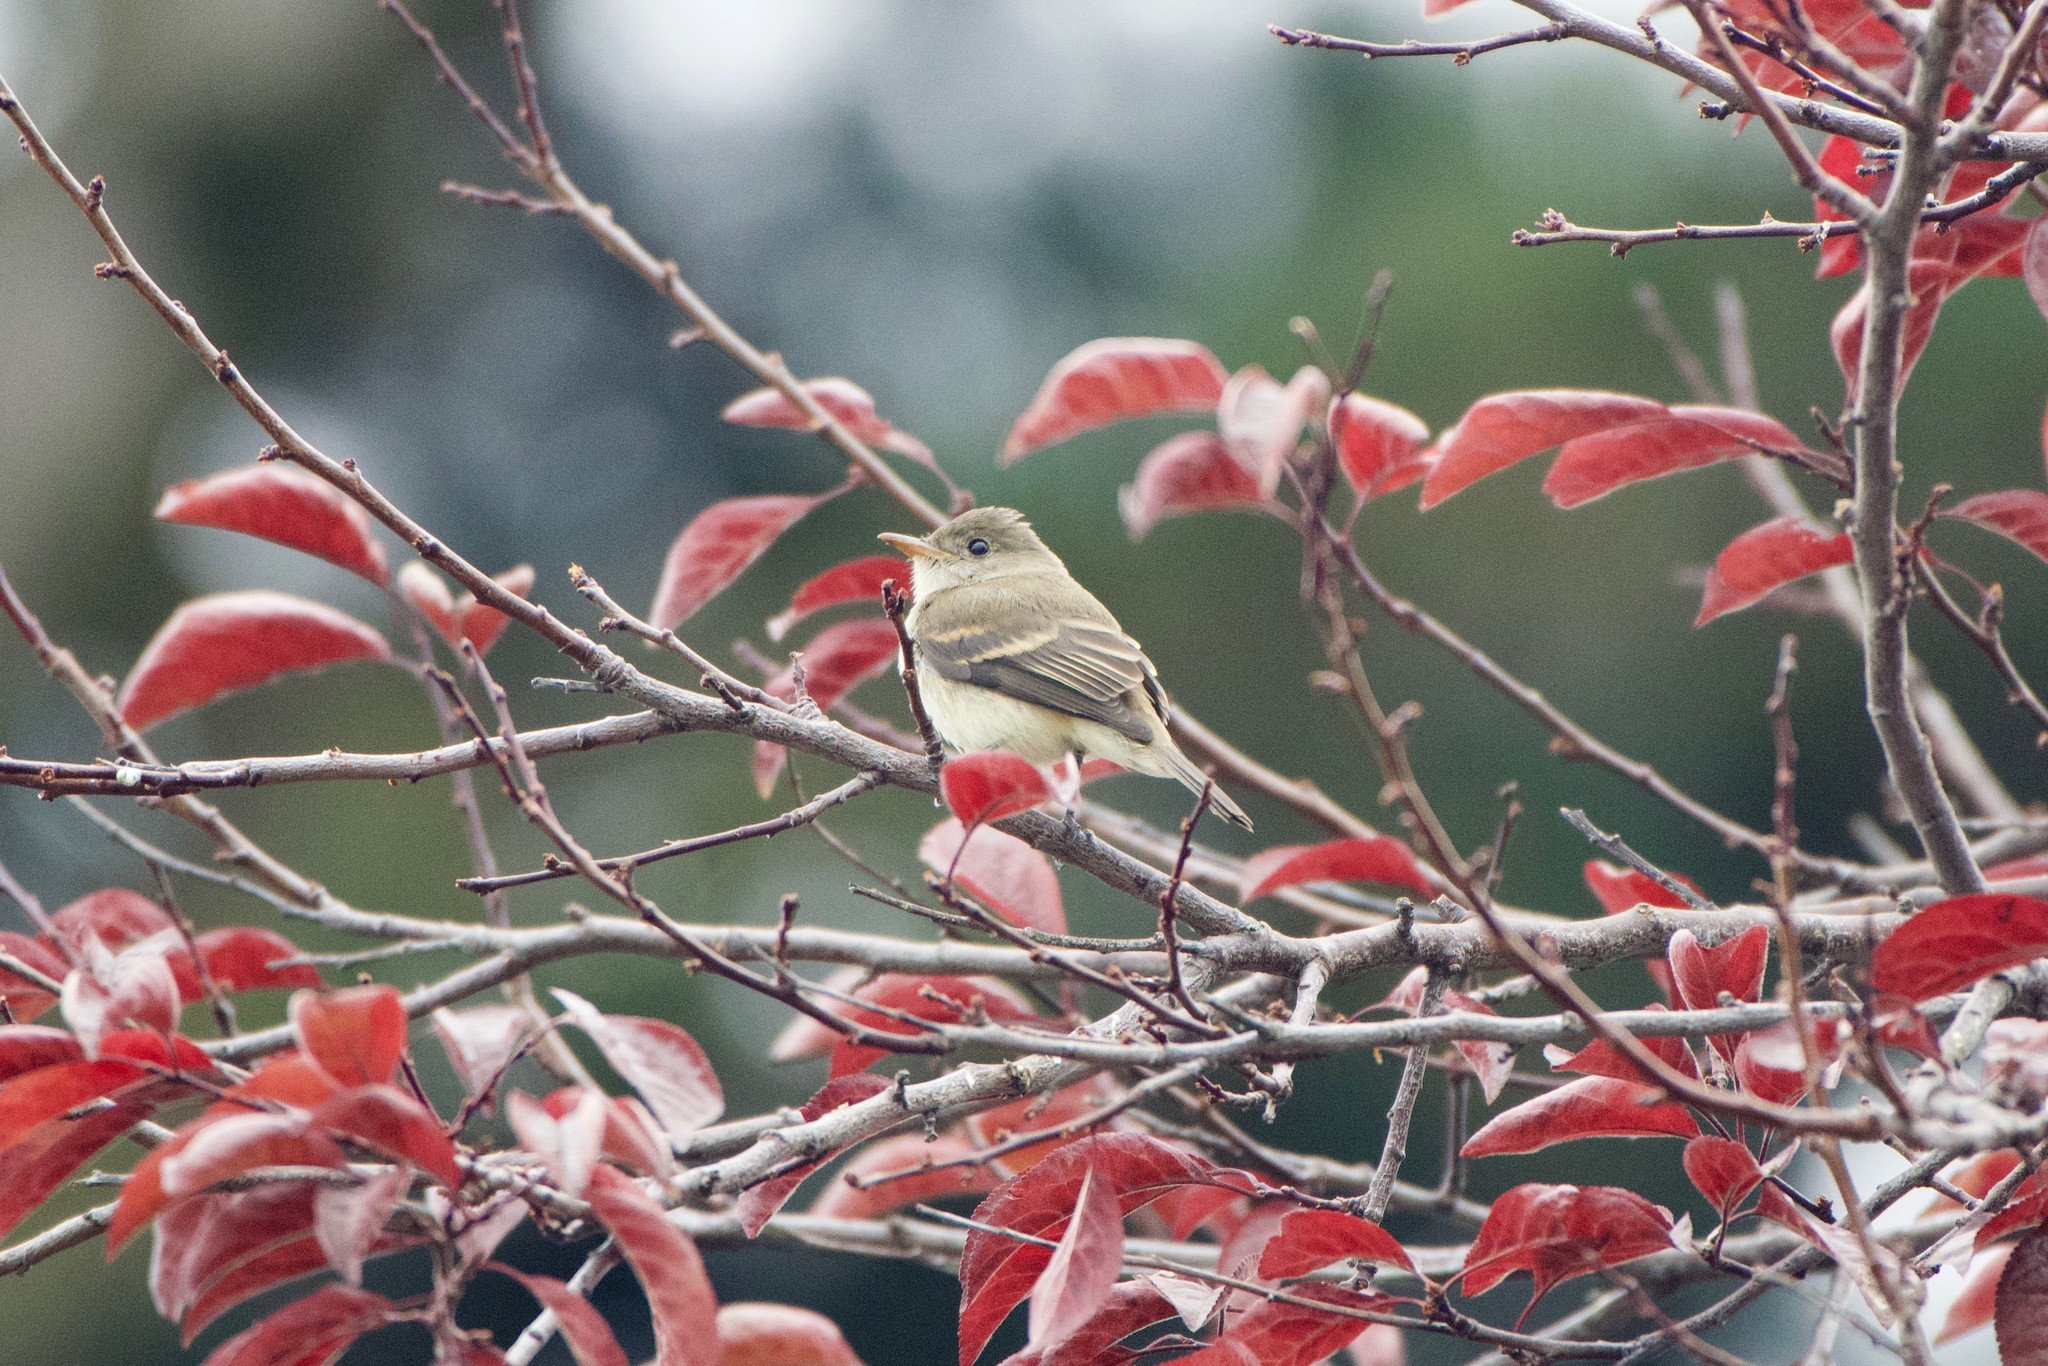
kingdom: Animalia
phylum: Chordata
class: Aves
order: Passeriformes
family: Tyrannidae
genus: Empidonax
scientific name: Empidonax traillii
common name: Willow flycatcher
